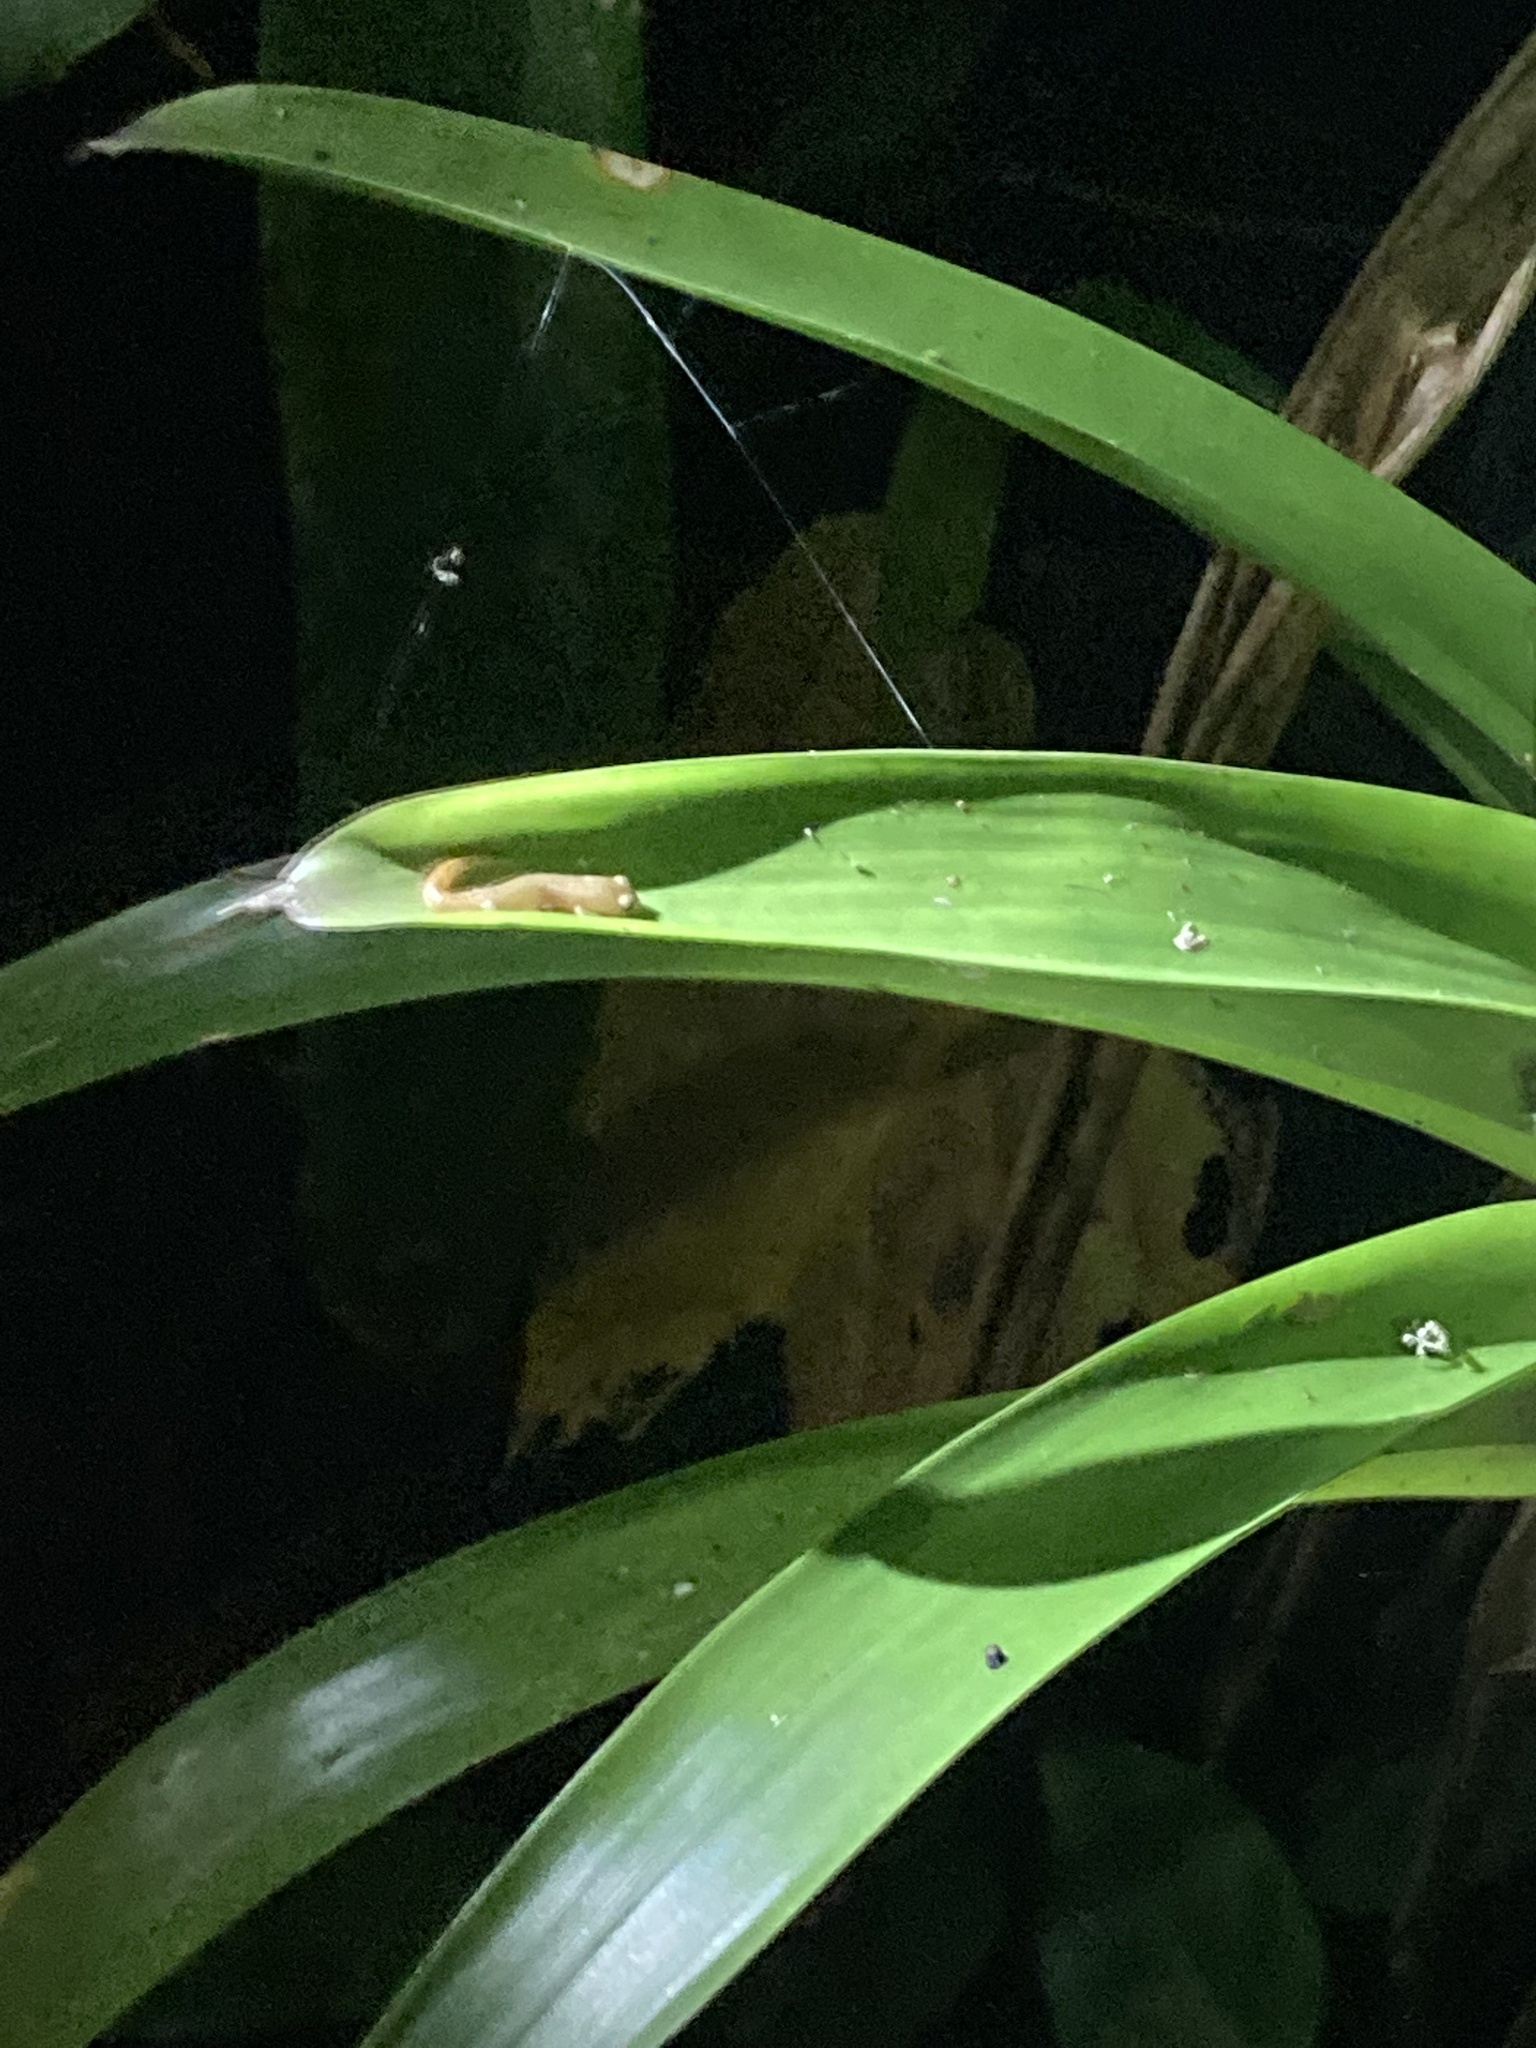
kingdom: Animalia
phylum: Chordata
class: Amphibia
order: Caudata
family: Plethodontidae
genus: Bolitoglossa
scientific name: Bolitoglossa helmrichi
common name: Coban mushroomtongue salamander
